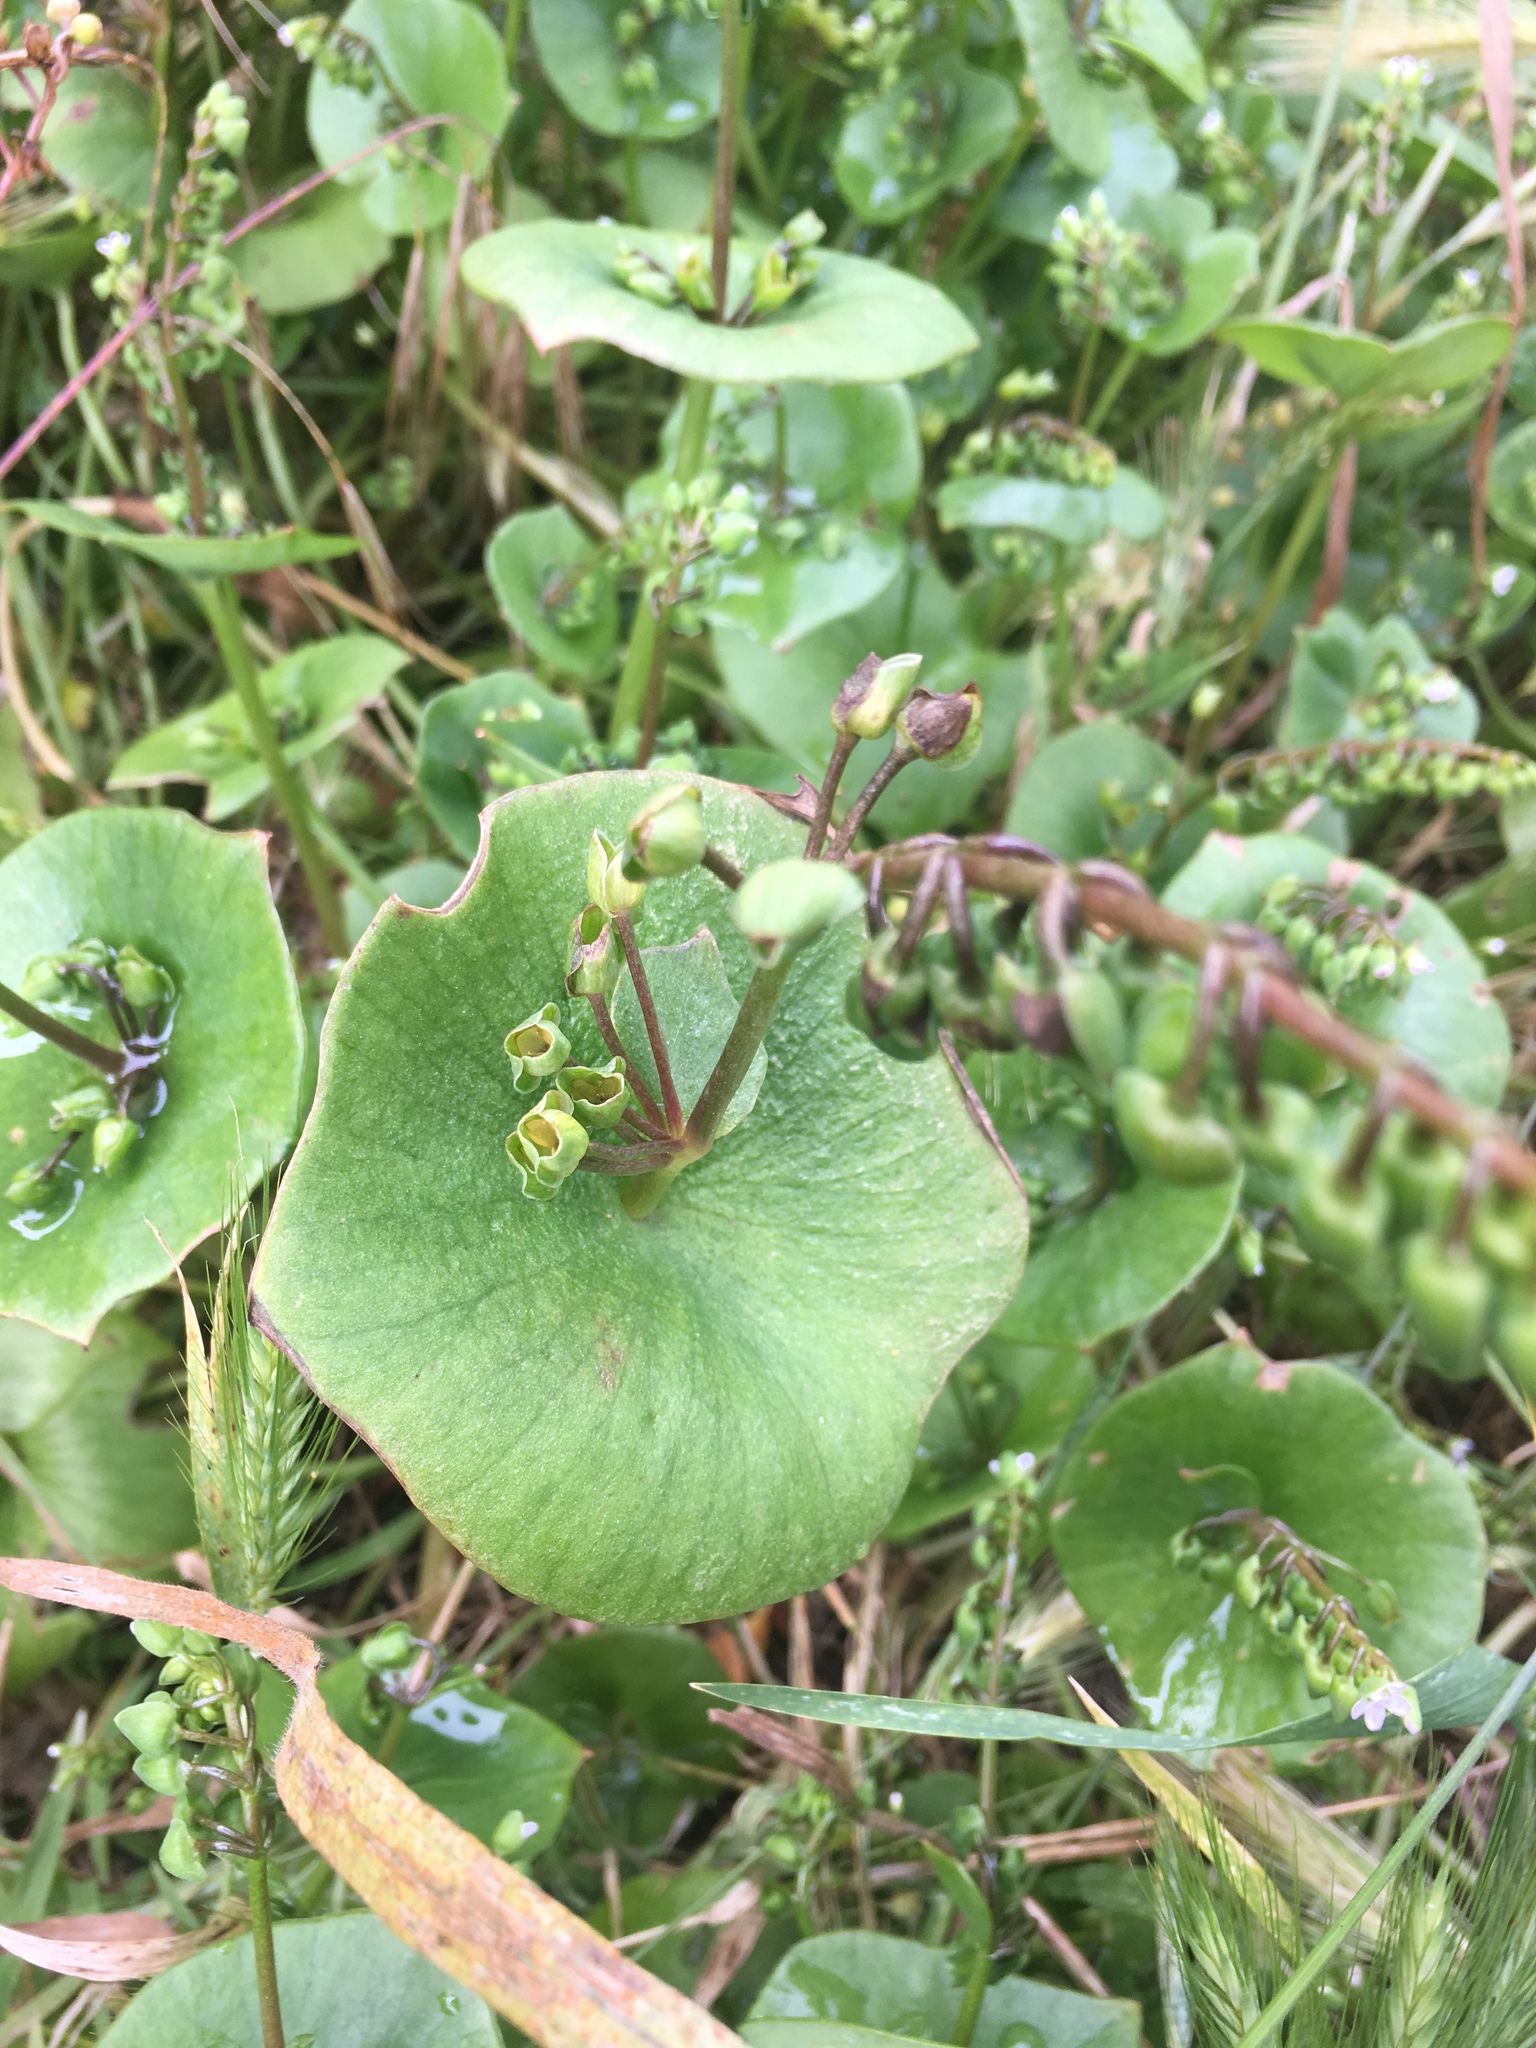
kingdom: Plantae
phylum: Tracheophyta
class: Magnoliopsida
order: Caryophyllales
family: Montiaceae
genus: Claytonia
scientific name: Claytonia perfoliata
